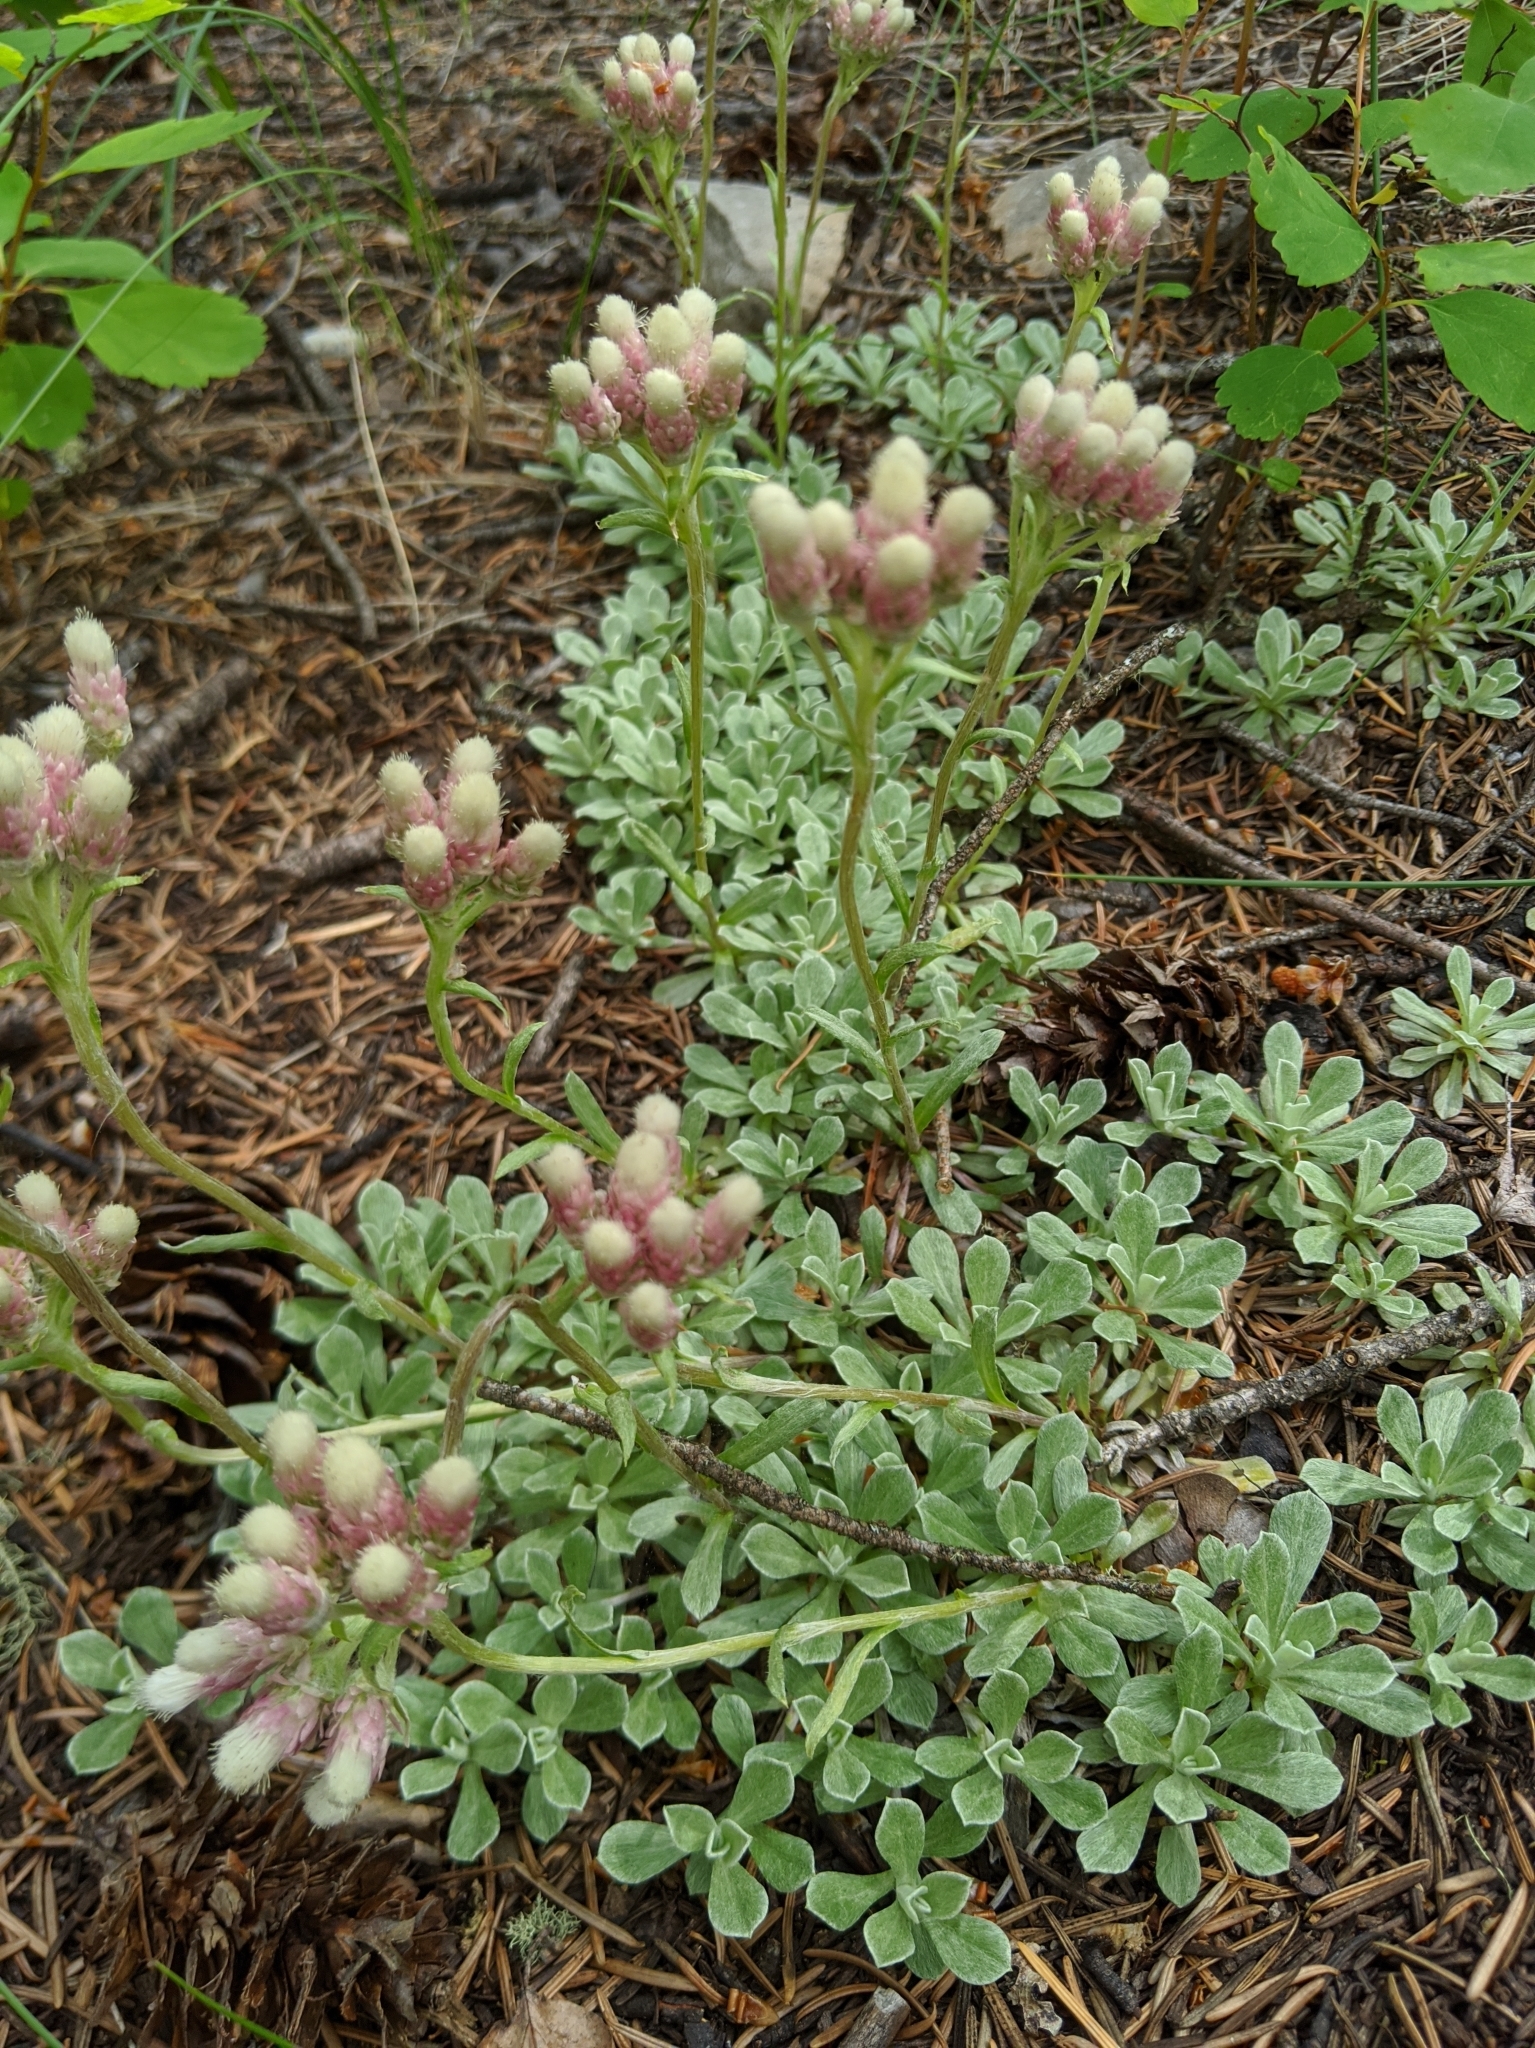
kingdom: Plantae
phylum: Tracheophyta
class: Magnoliopsida
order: Asterales
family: Asteraceae
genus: Antennaria
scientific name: Antennaria rosea
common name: Rosy pussytoes
